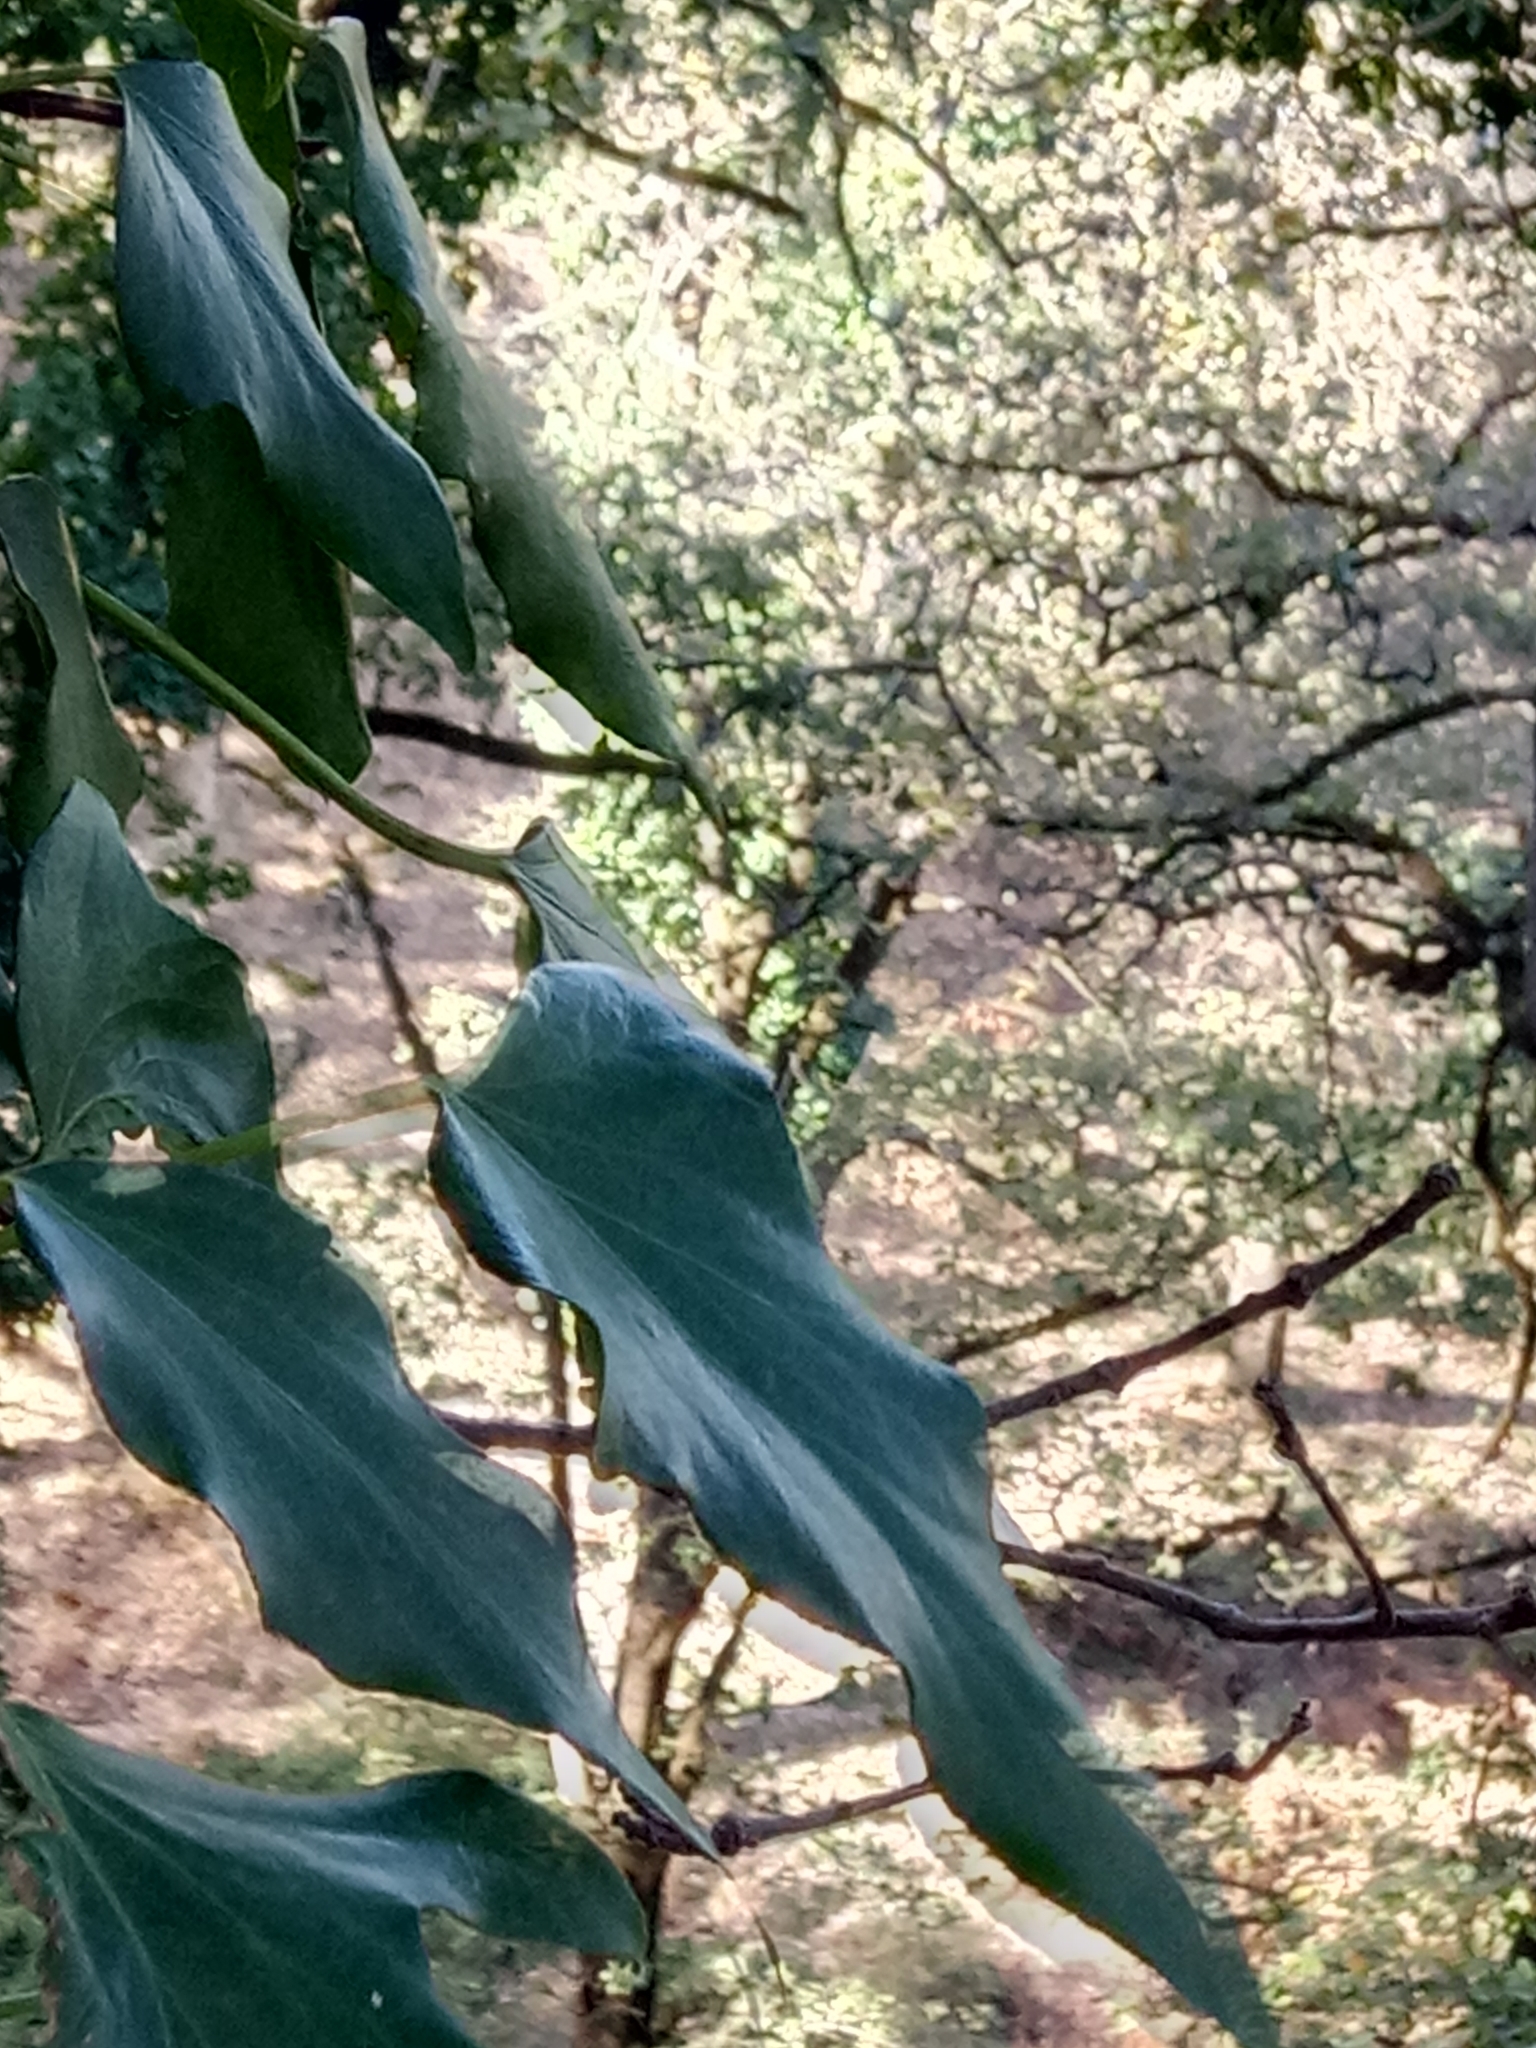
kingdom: Plantae
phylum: Tracheophyta
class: Magnoliopsida
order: Apiales
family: Araliaceae
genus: Hedera
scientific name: Hedera algeriensis
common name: Algerian ivy
